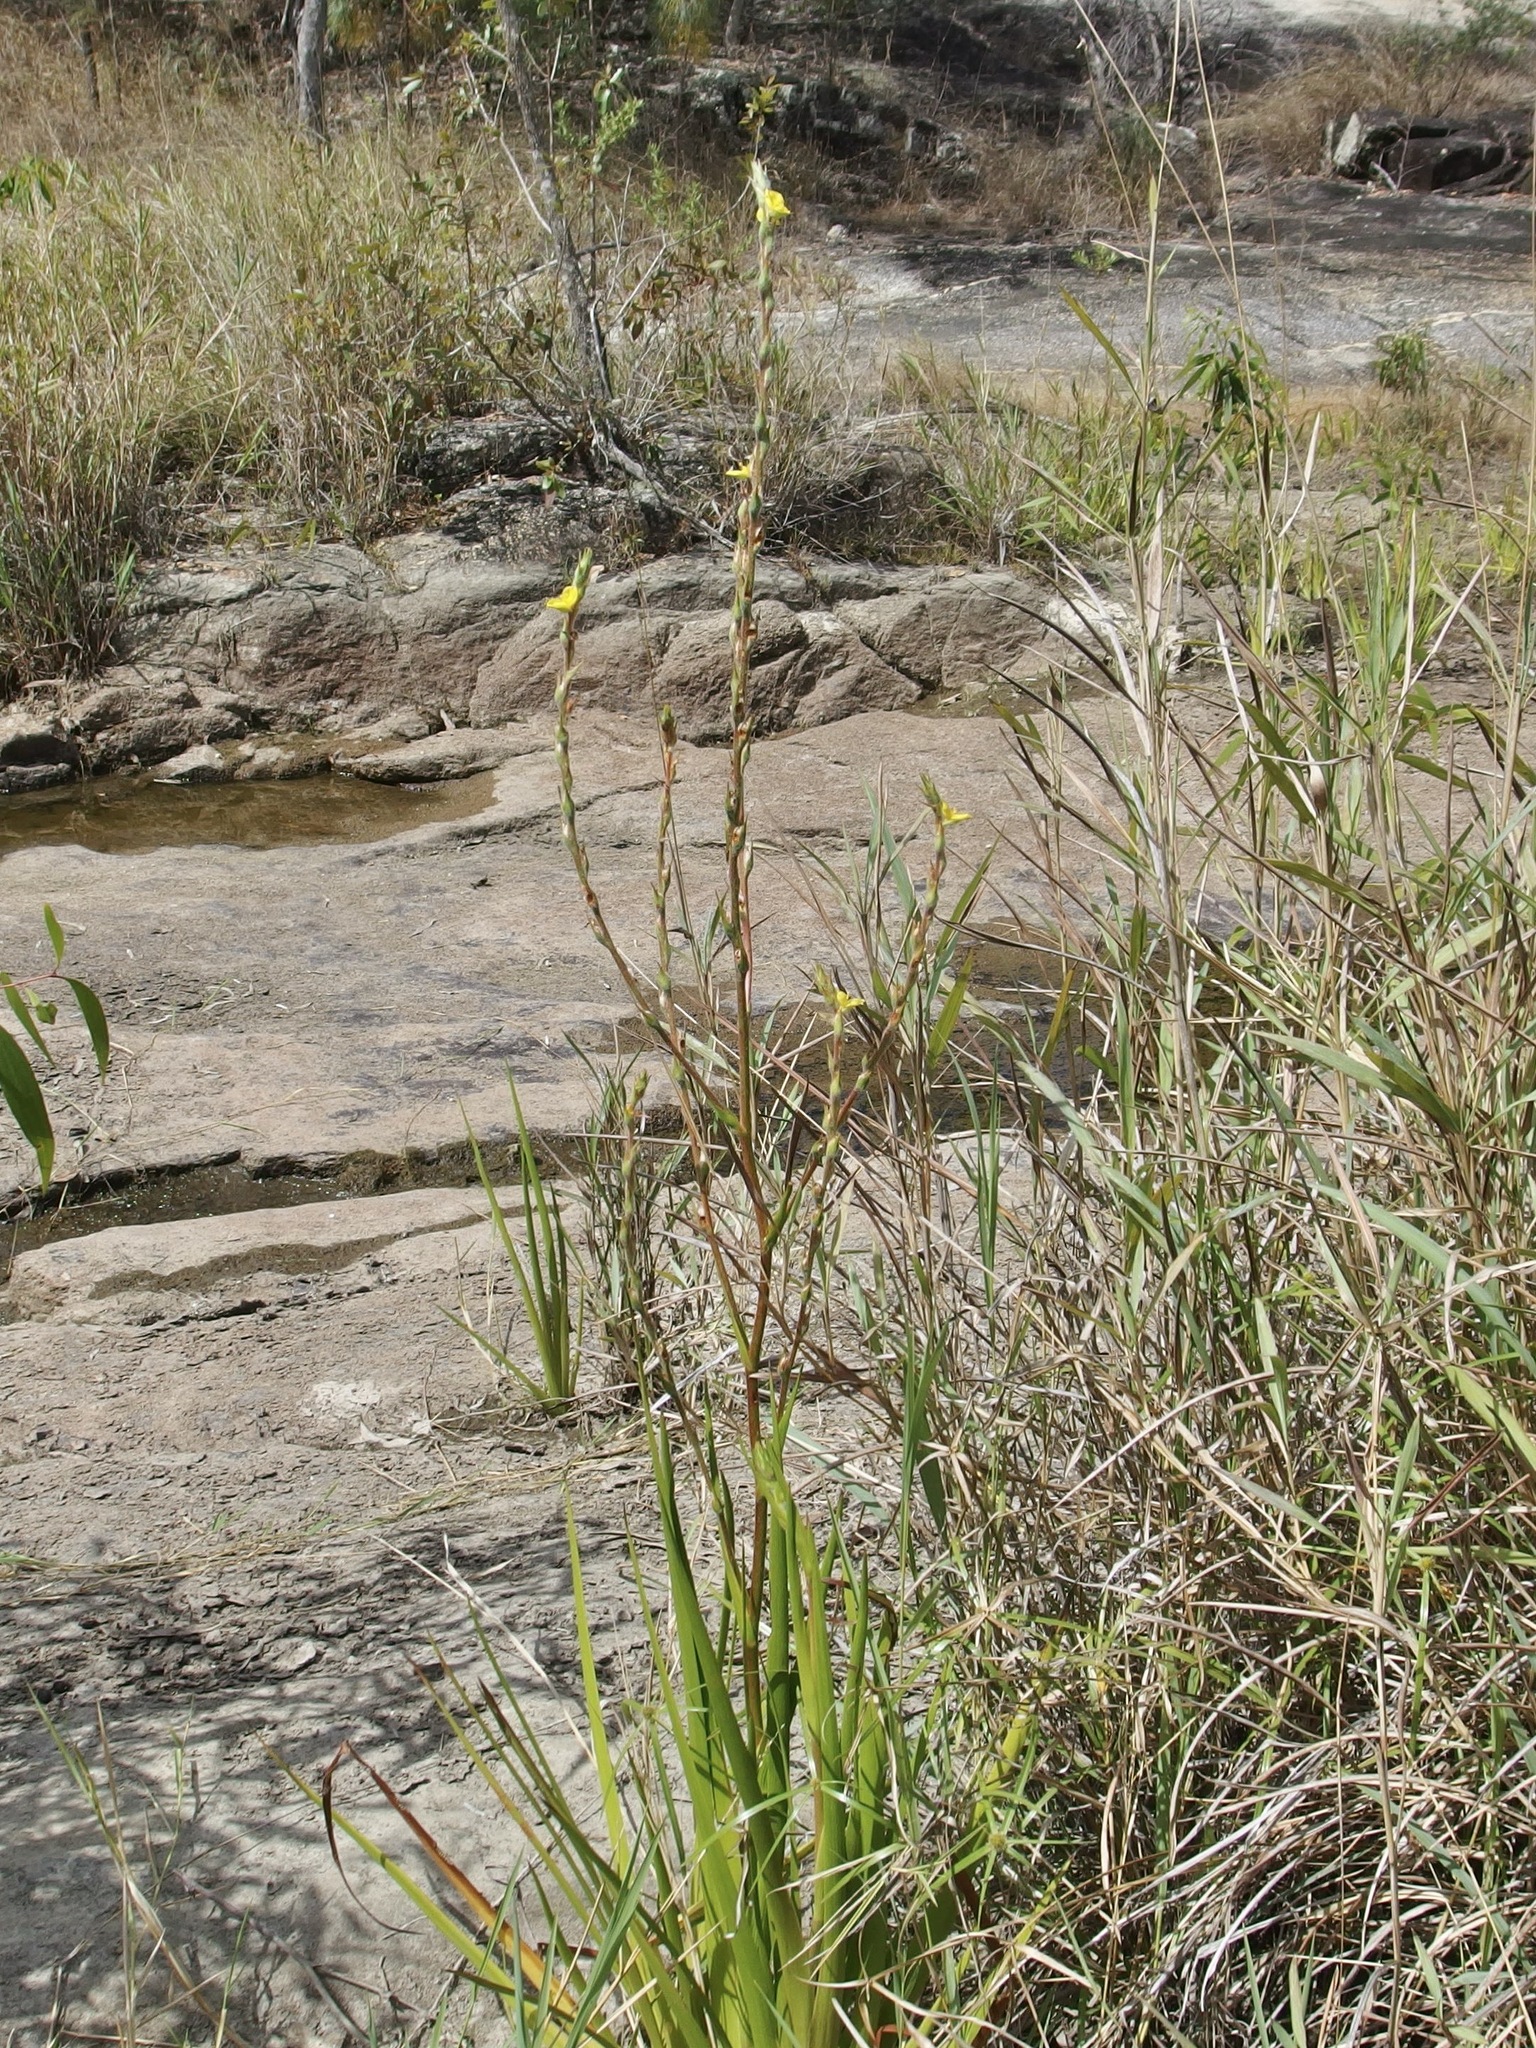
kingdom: Plantae
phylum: Tracheophyta
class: Liliopsida
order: Commelinales
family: Philydraceae
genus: Philydrum
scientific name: Philydrum lanuginosum
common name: Woolly frog's mouth
